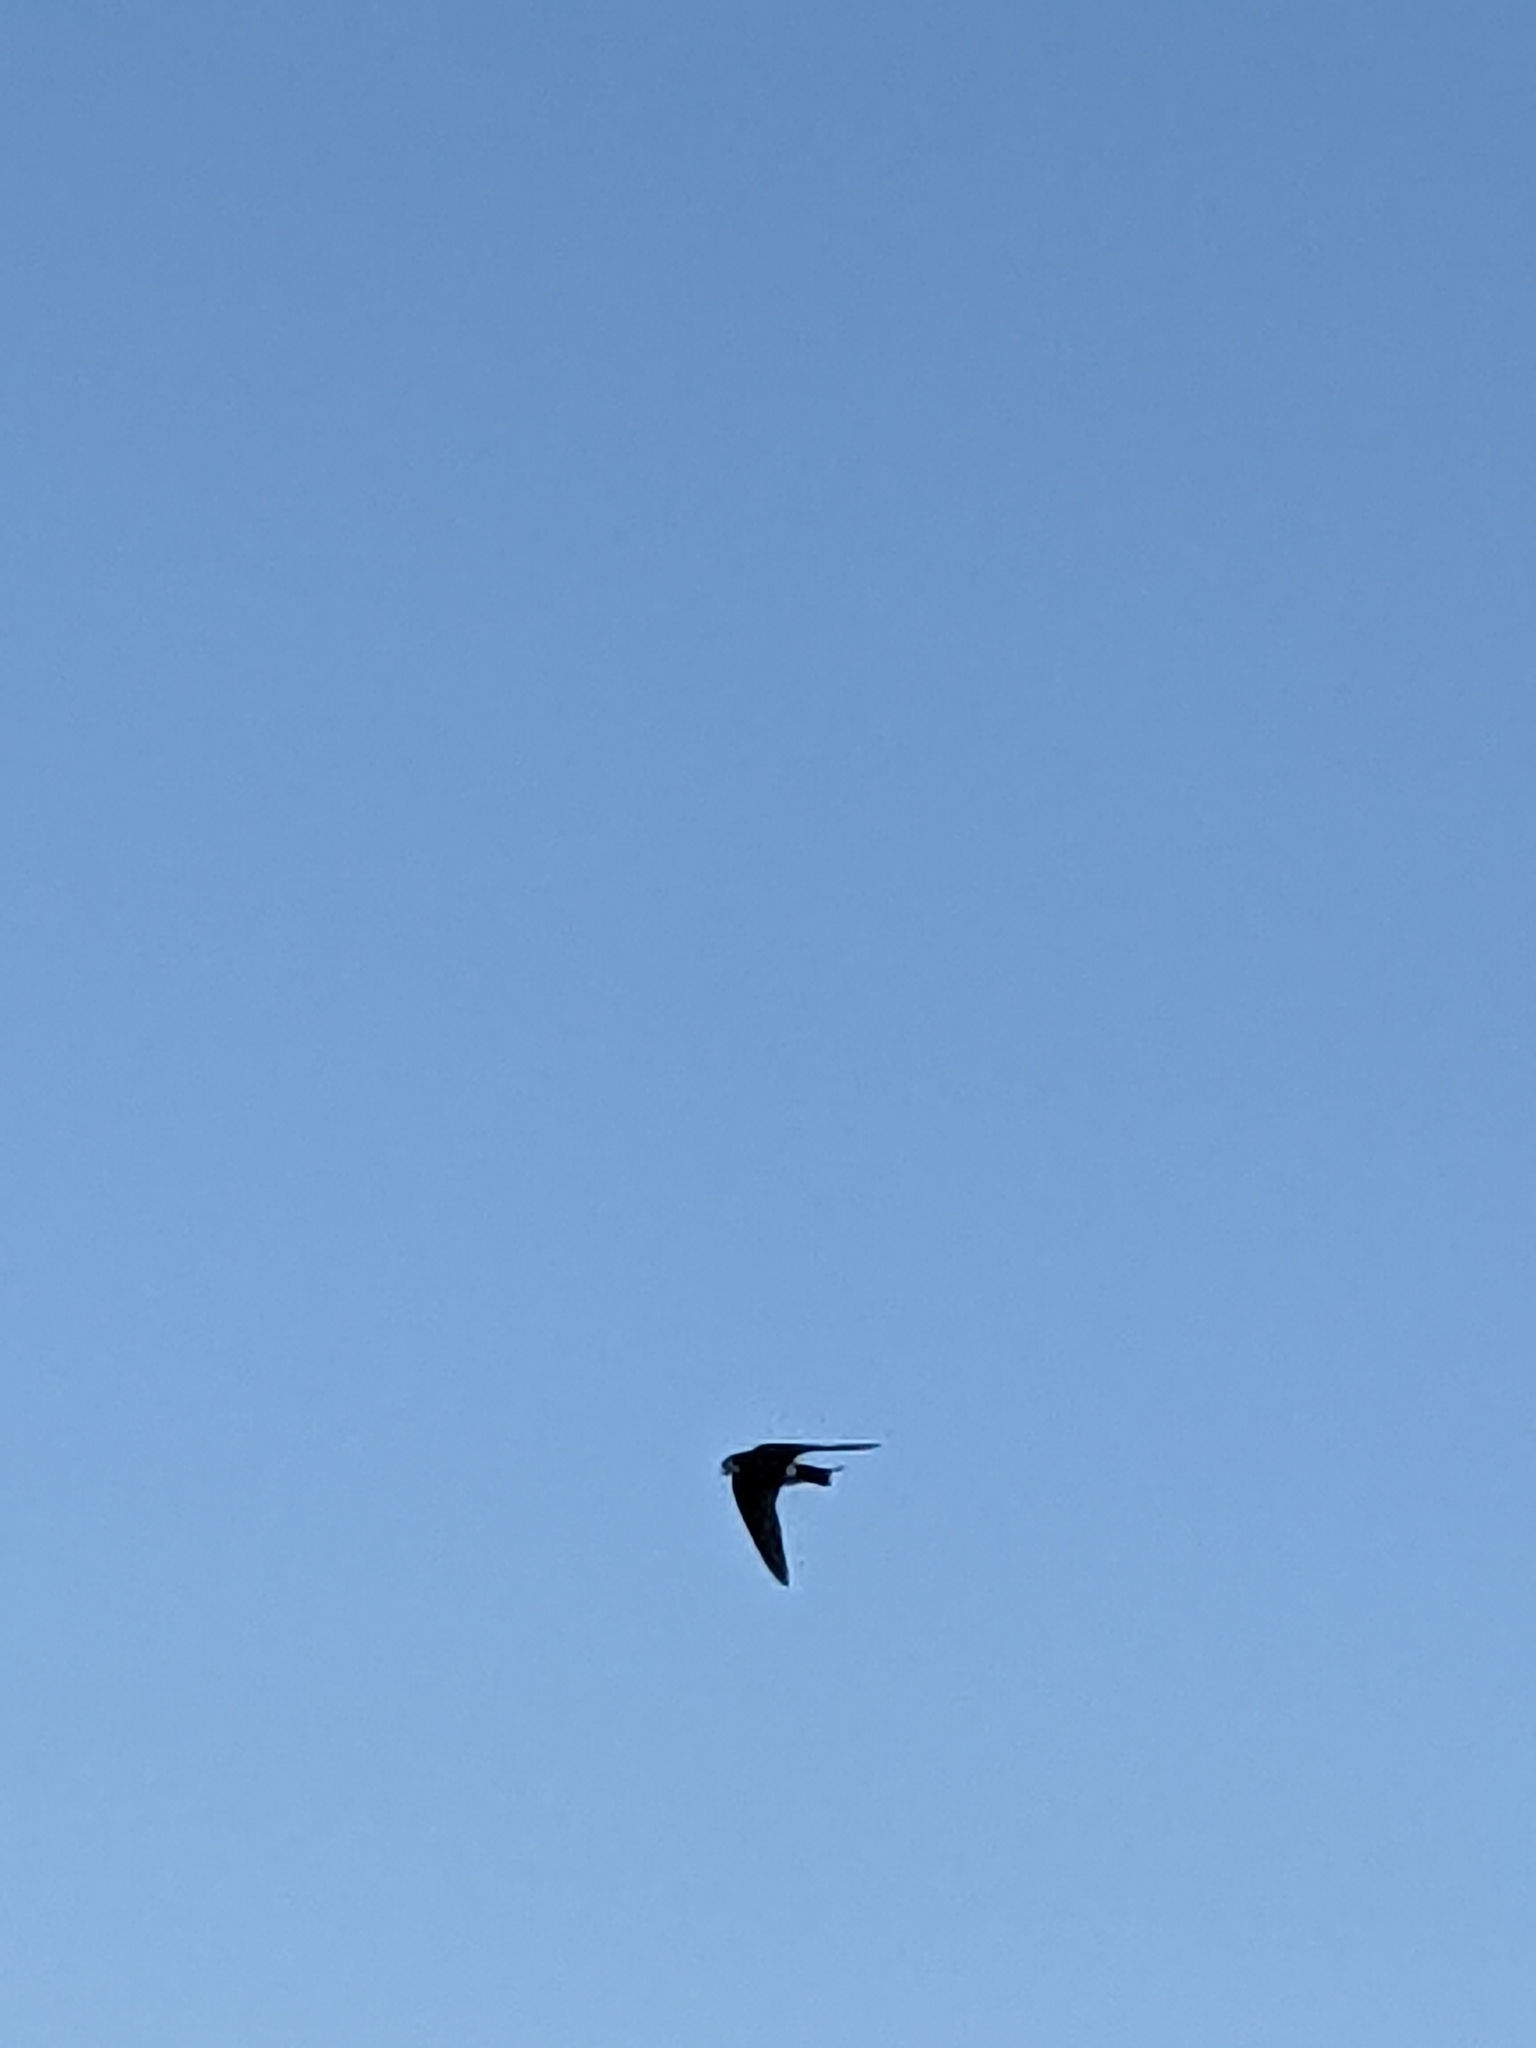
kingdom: Animalia
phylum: Chordata
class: Aves
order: Passeriformes
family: Hirundinidae
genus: Tachycineta
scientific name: Tachycineta thalassina
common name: Violet-green swallow
